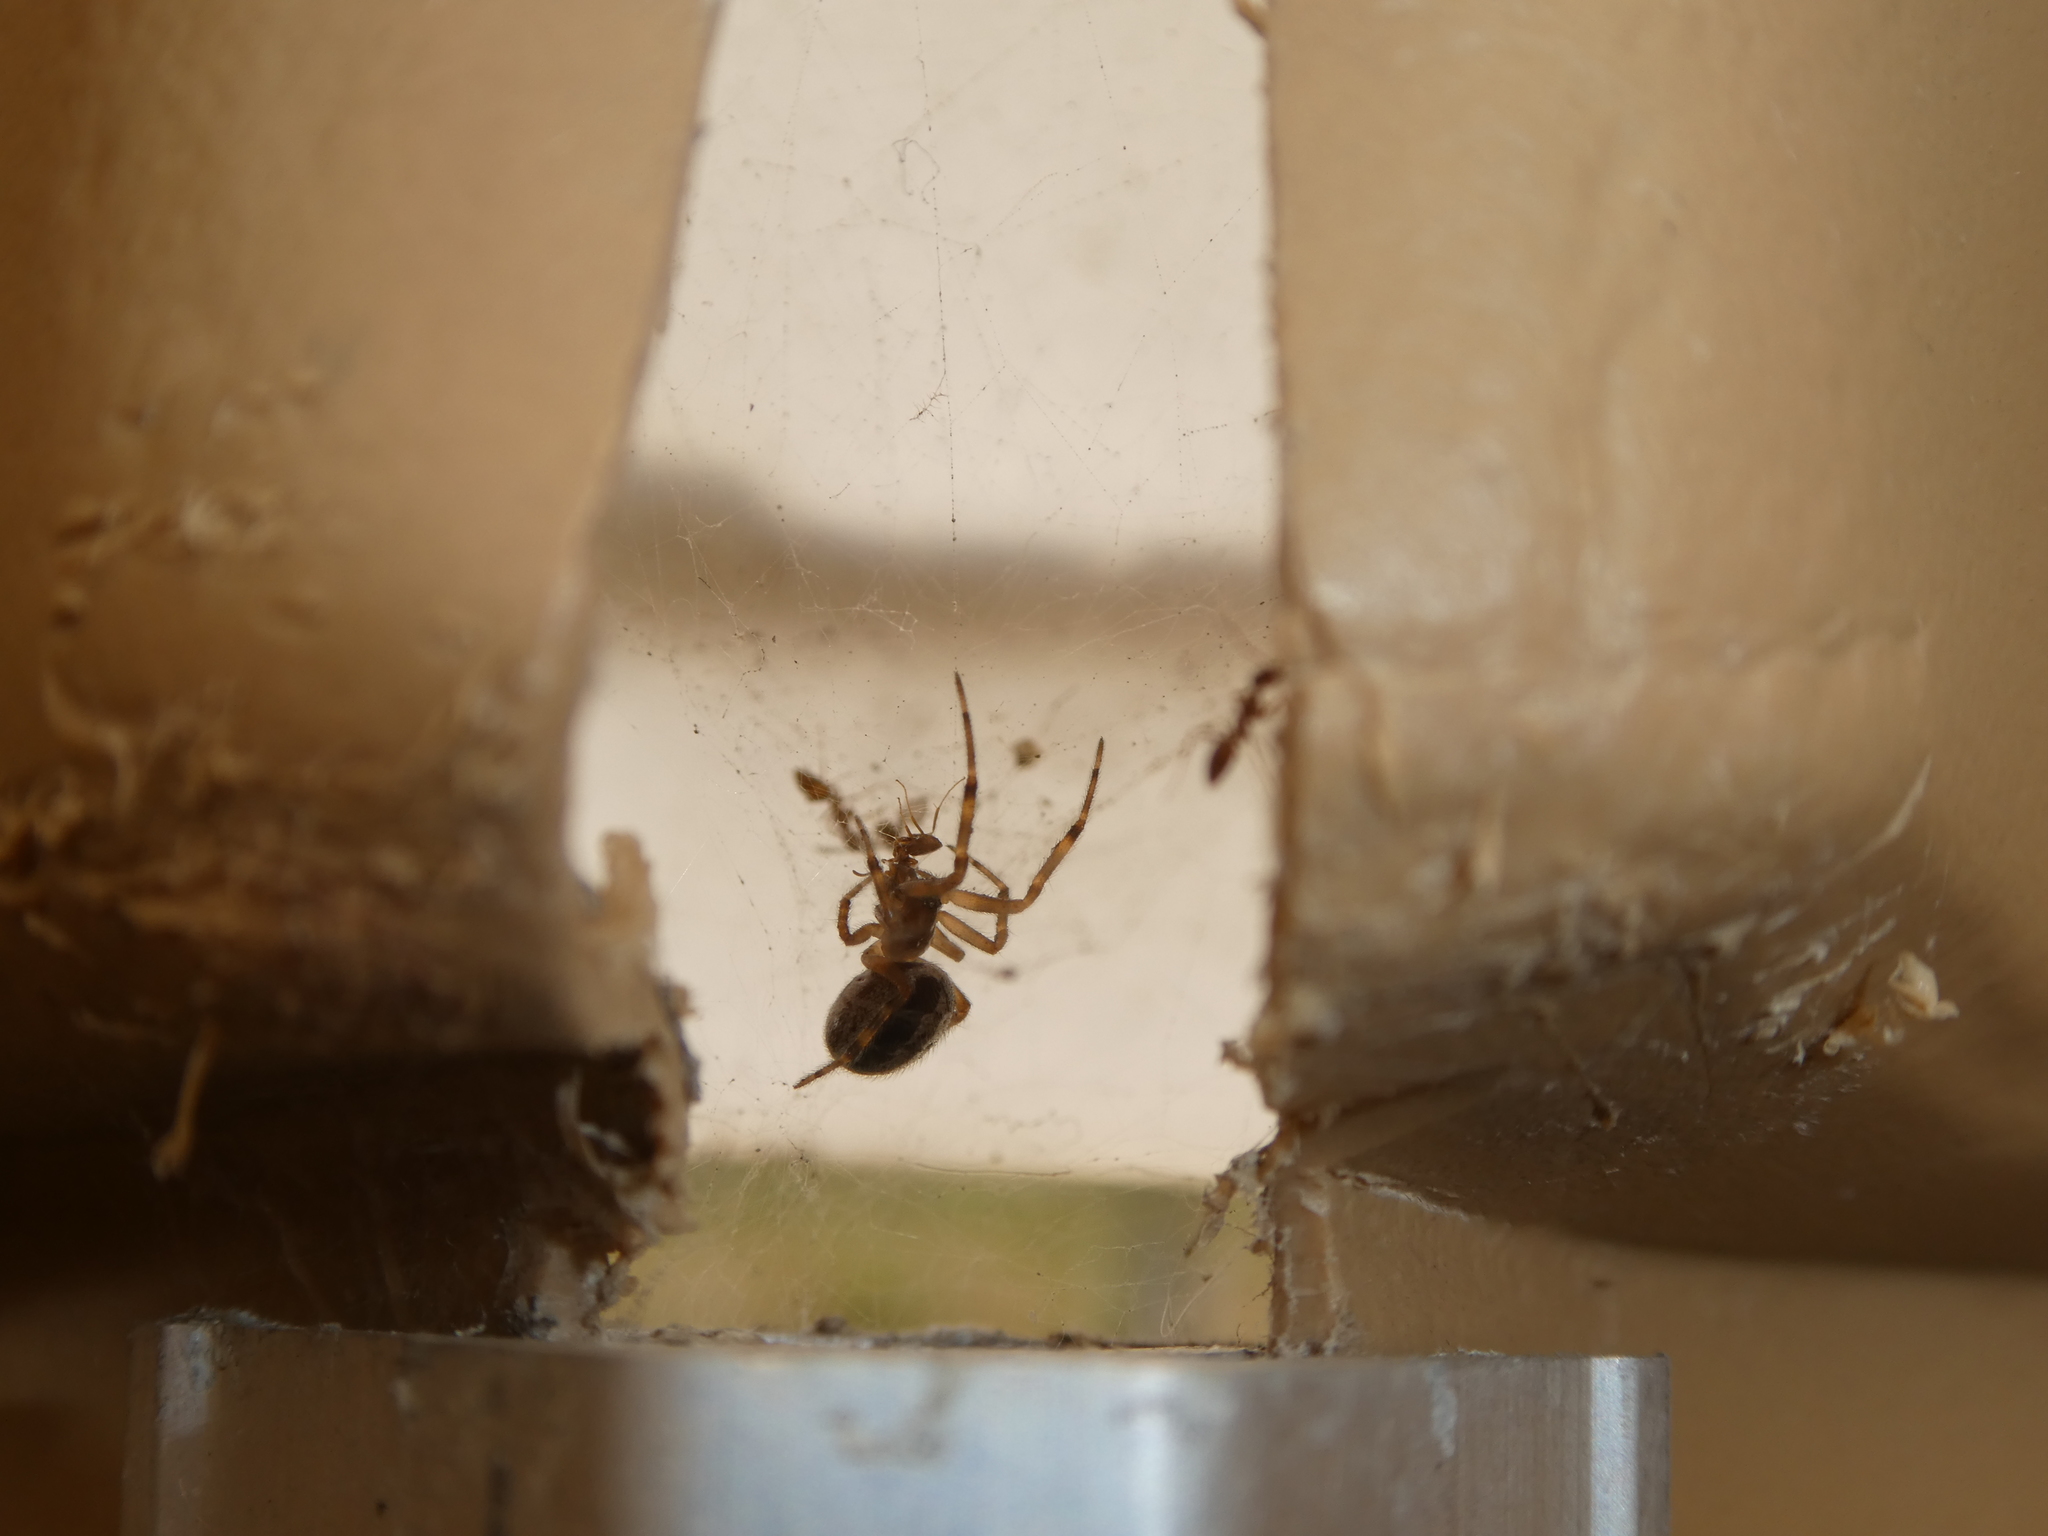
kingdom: Animalia
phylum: Arthropoda
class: Arachnida
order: Araneae
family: Theridiidae
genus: Steatoda
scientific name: Steatoda nobilis
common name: Cobweb weaver
